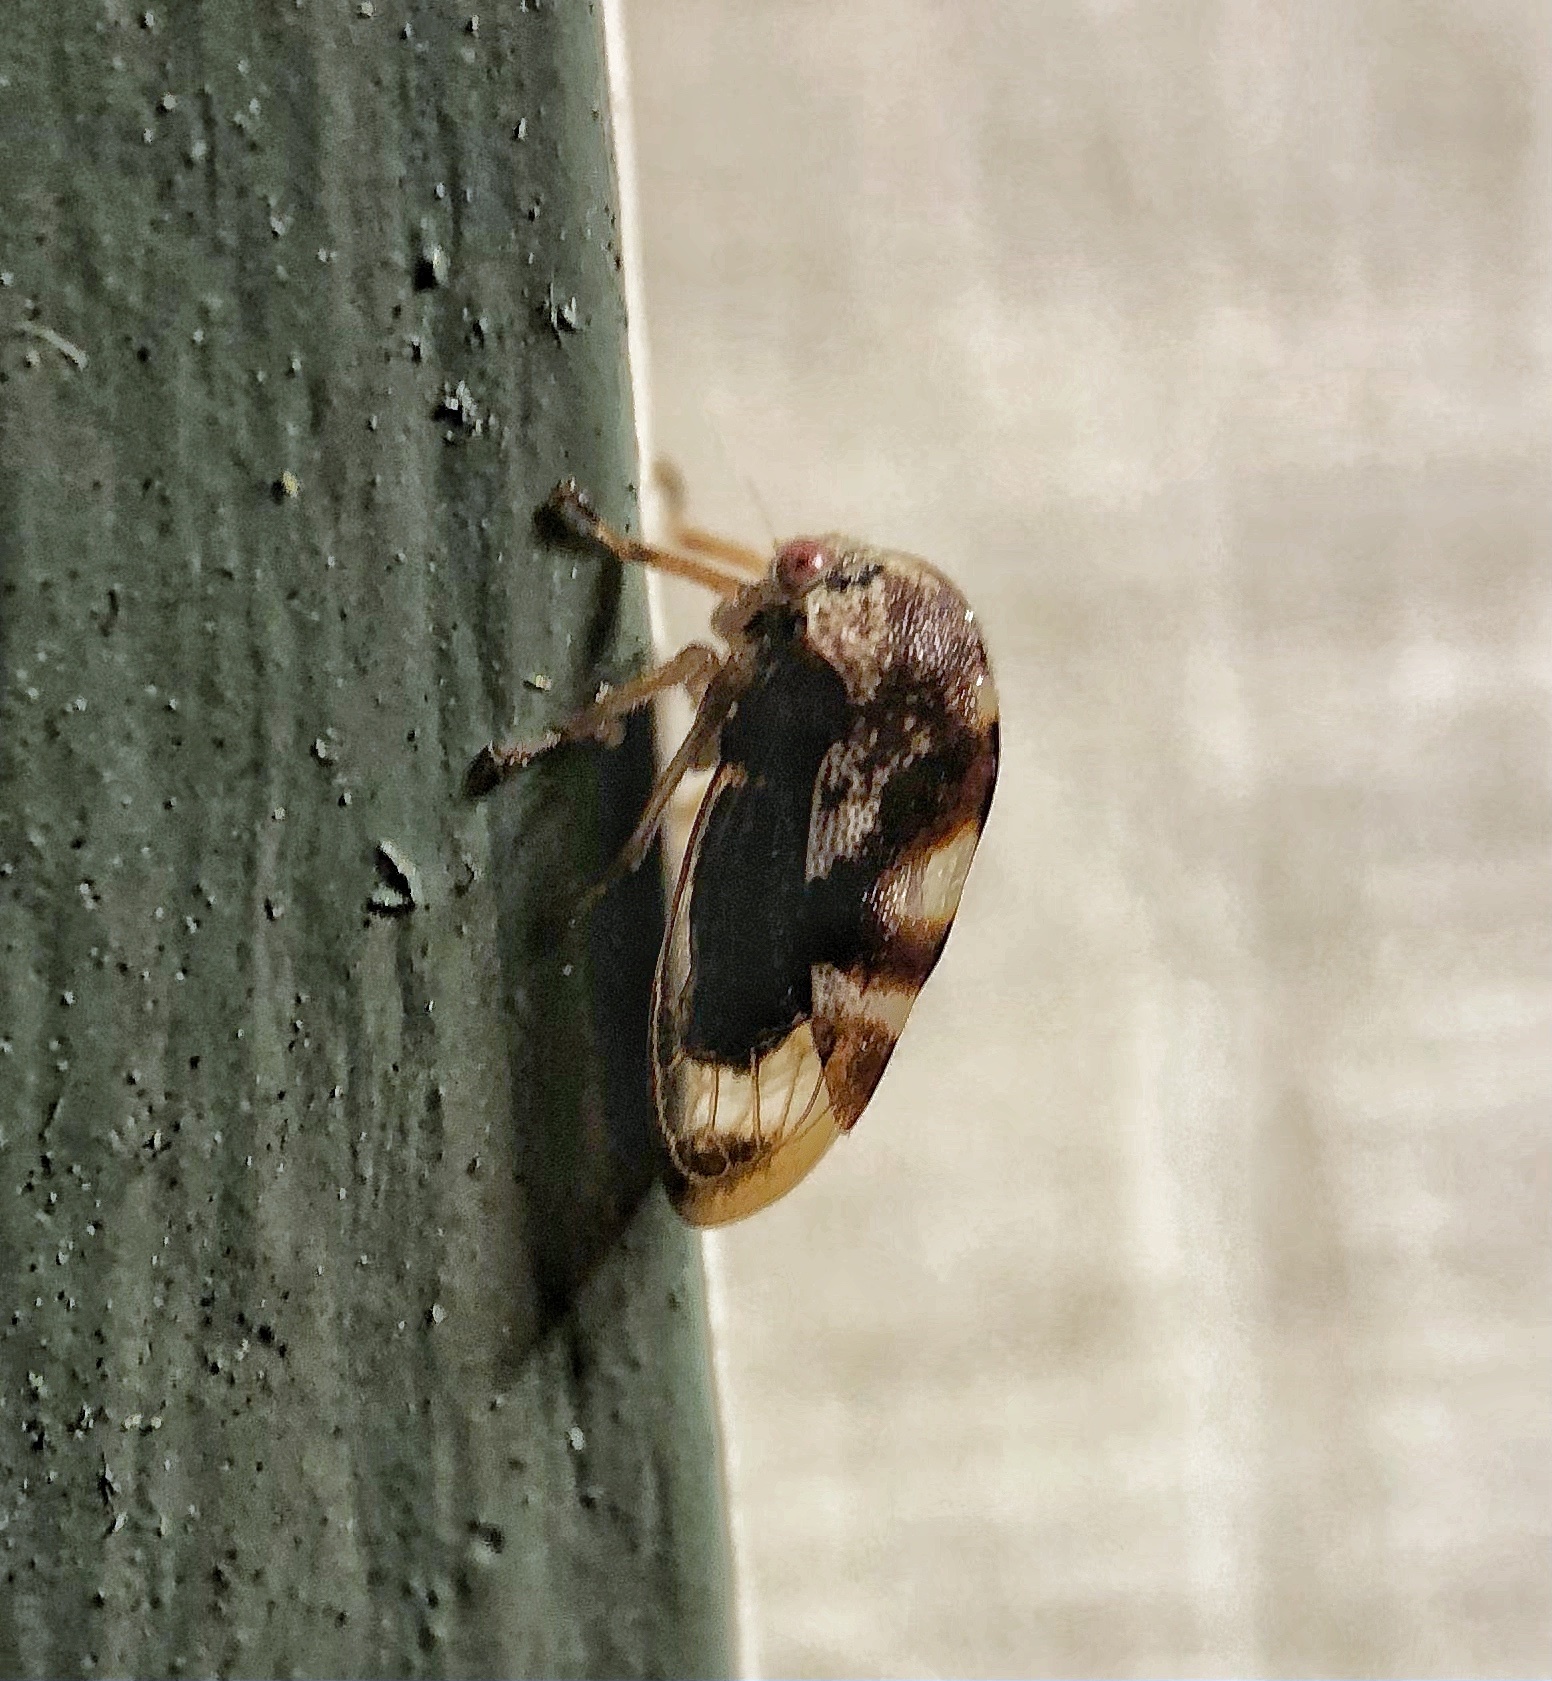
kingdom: Animalia
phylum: Arthropoda
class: Insecta
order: Hemiptera
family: Membracidae
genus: Cyrtolobus
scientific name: Cyrtolobus vau
